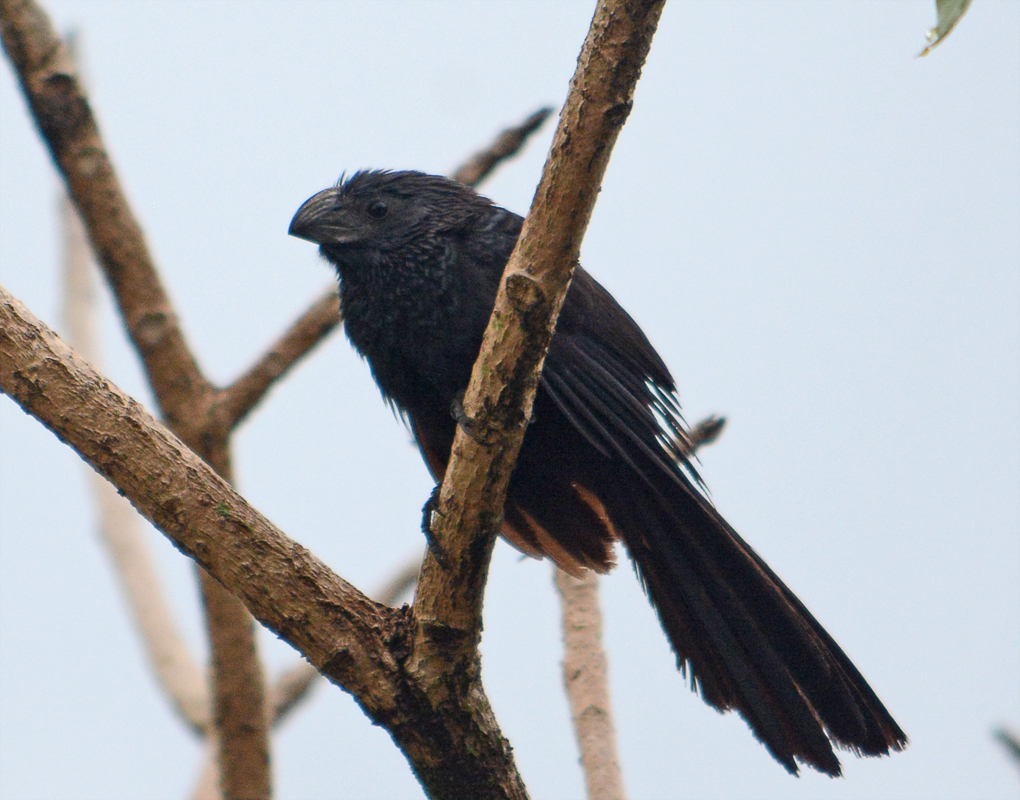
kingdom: Animalia
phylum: Chordata
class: Aves
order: Cuculiformes
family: Cuculidae
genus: Crotophaga
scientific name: Crotophaga sulcirostris
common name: Groove-billed ani
